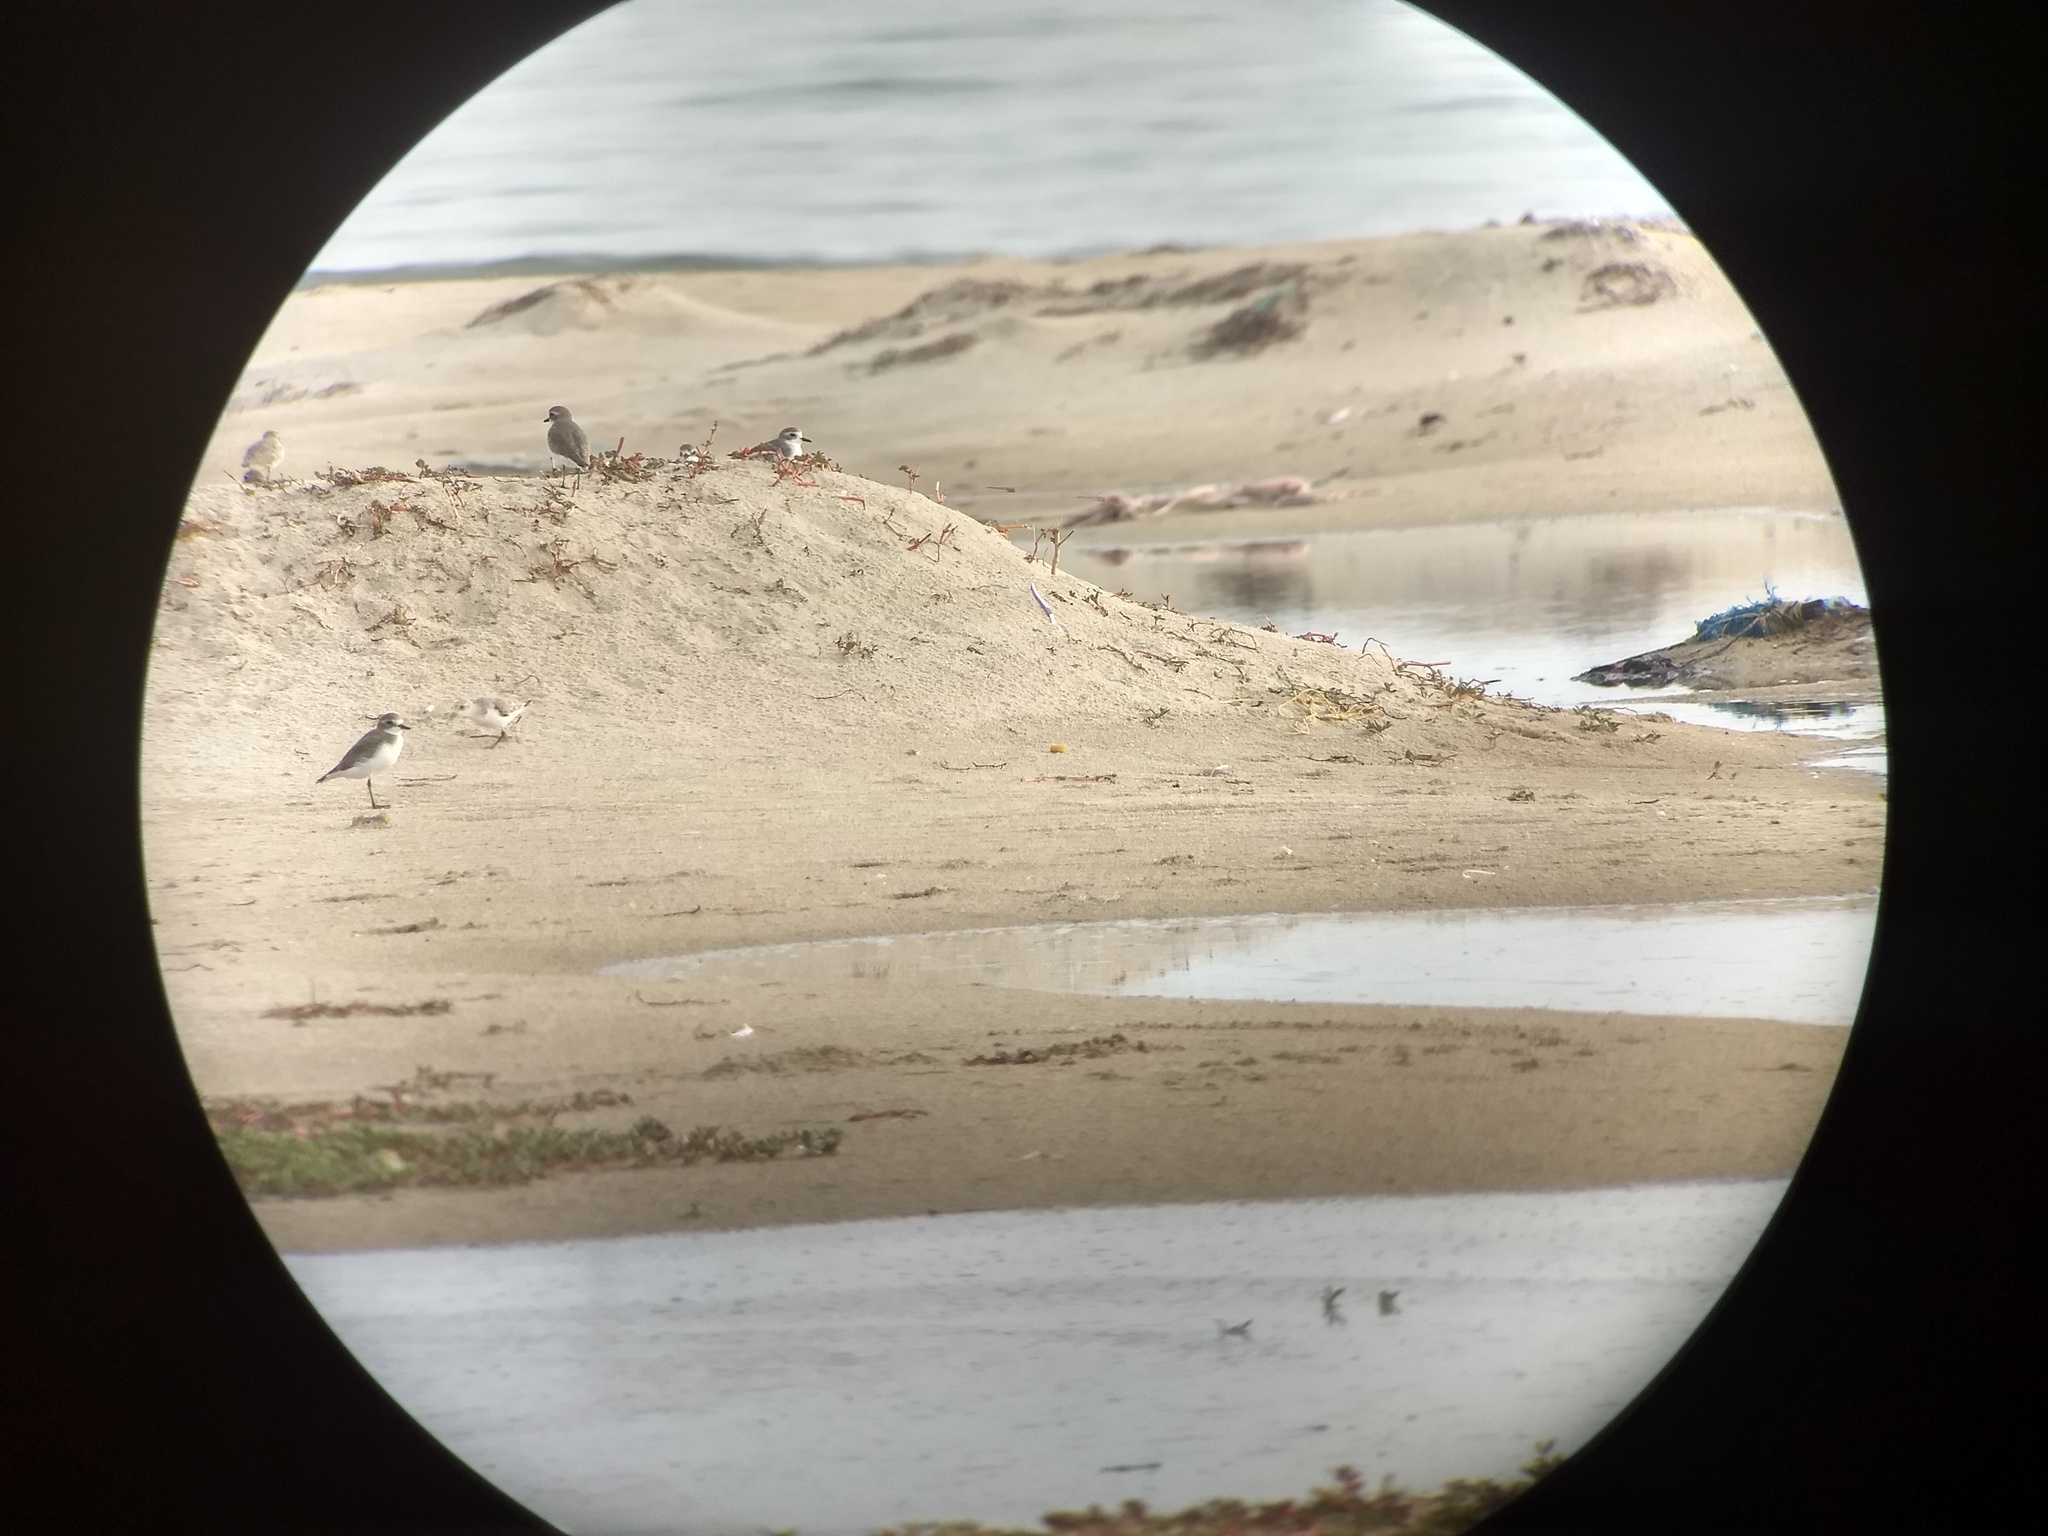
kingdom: Animalia
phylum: Chordata
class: Aves
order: Charadriiformes
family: Scolopacidae
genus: Calidris
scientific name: Calidris alba
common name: Sanderling
